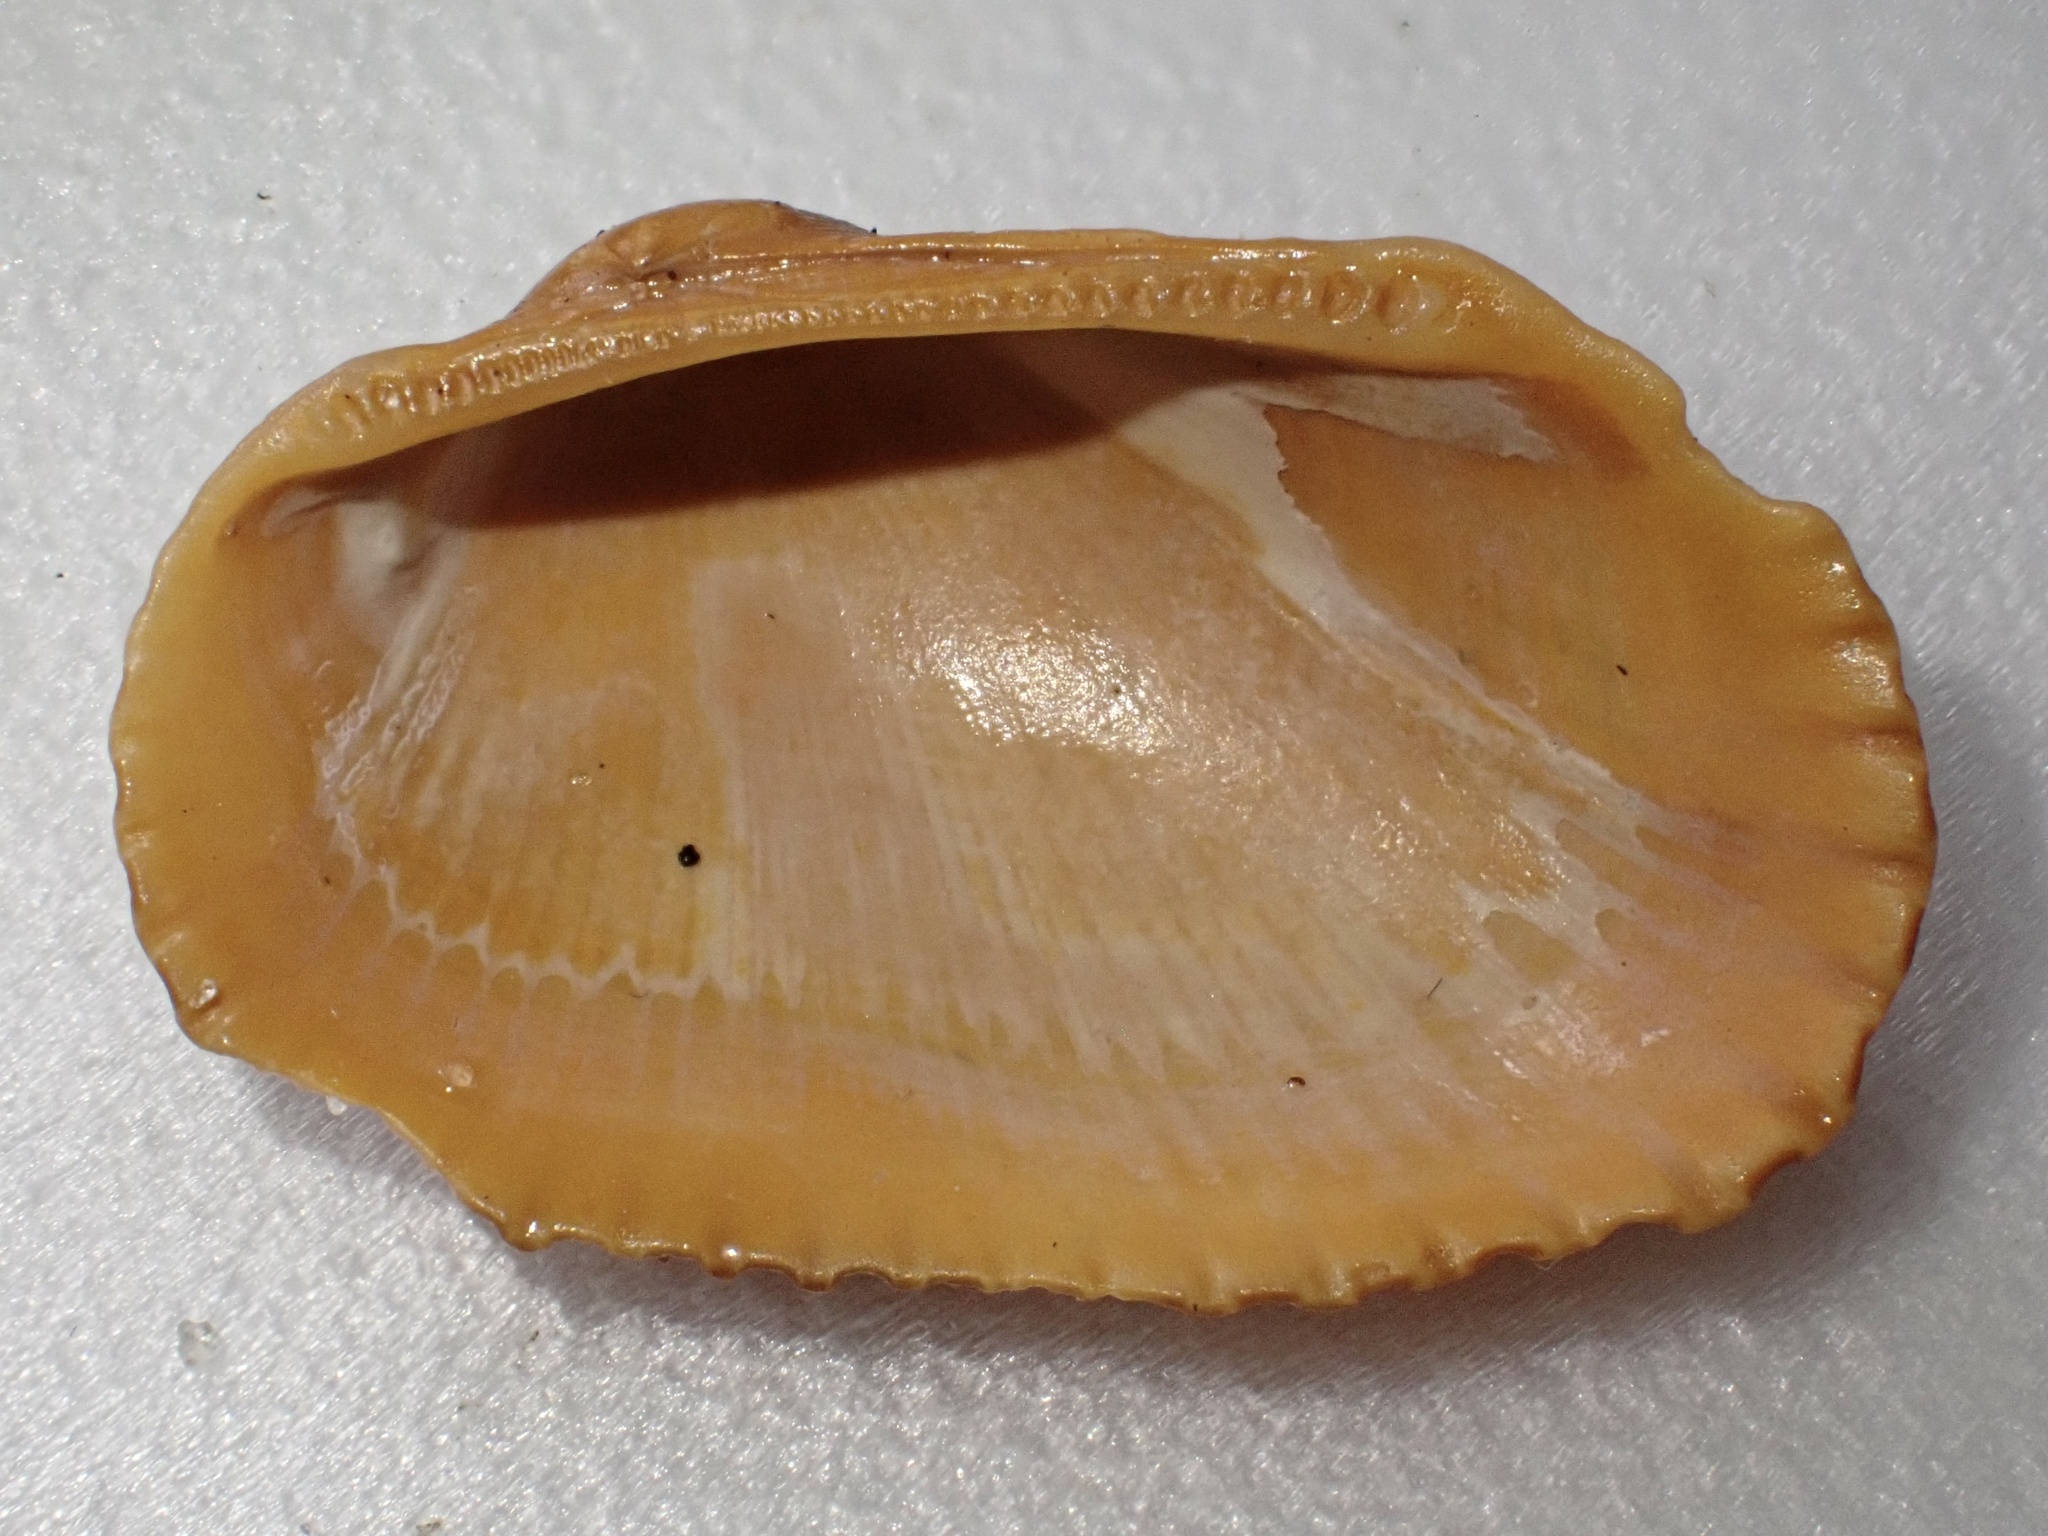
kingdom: Animalia
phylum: Mollusca
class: Bivalvia
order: Arcida
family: Arcidae
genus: Anadara
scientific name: Anadara transversa
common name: Transverse ark
